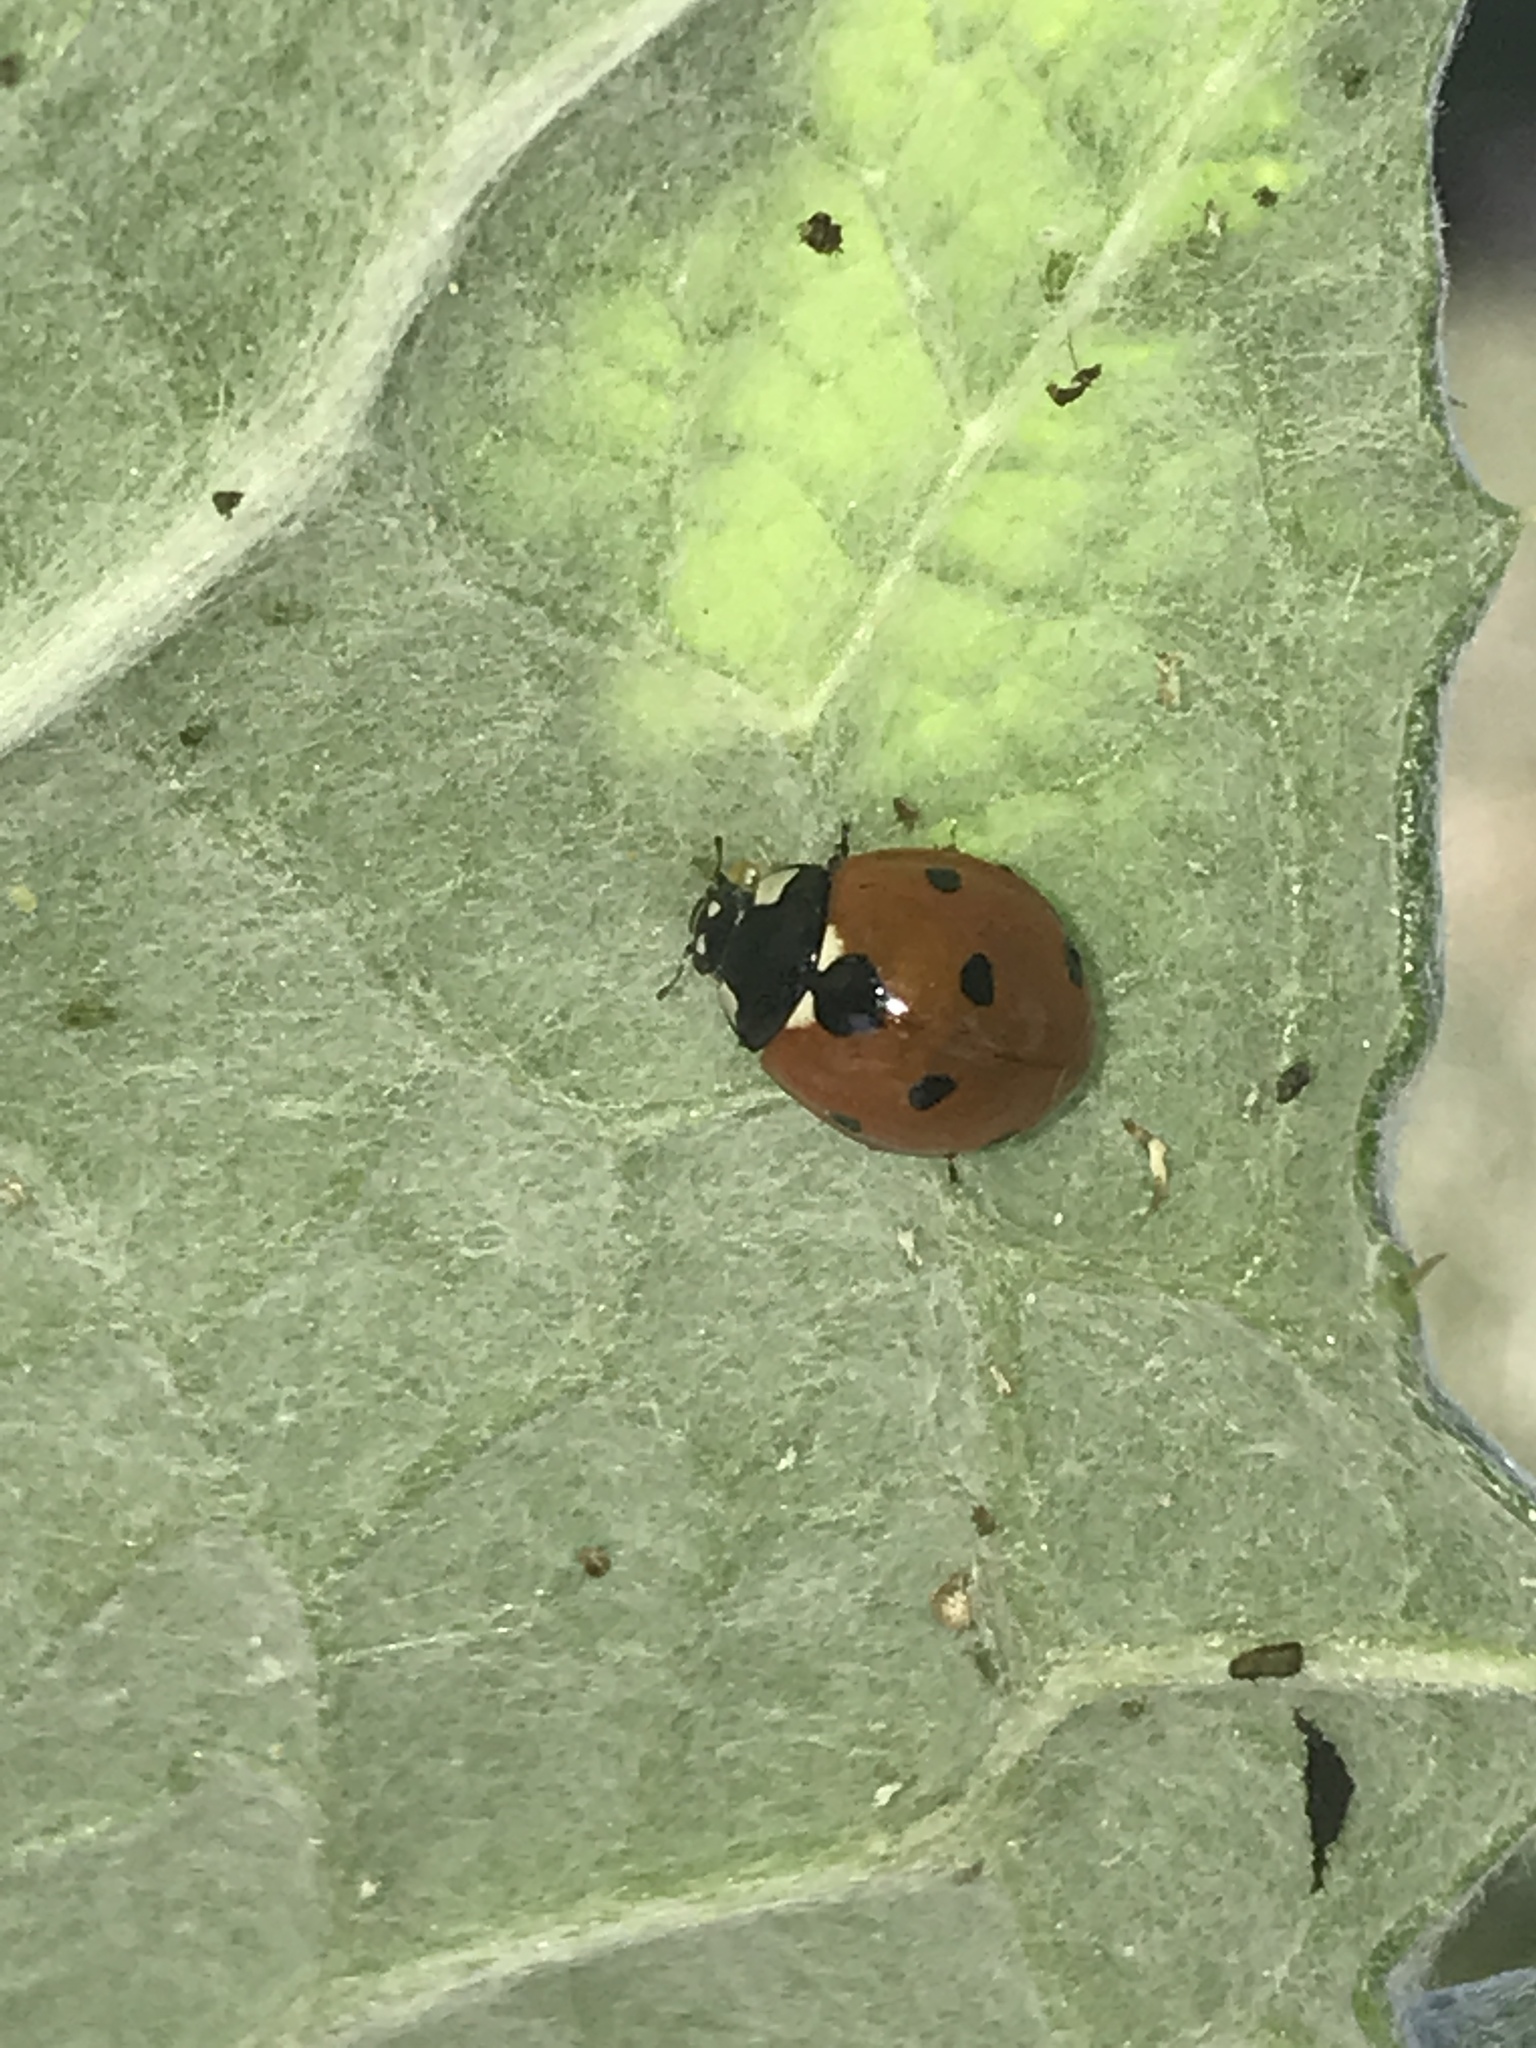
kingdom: Animalia
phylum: Arthropoda
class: Insecta
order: Coleoptera
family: Coccinellidae
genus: Coccinella
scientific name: Coccinella septempunctata
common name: Sevenspotted lady beetle
